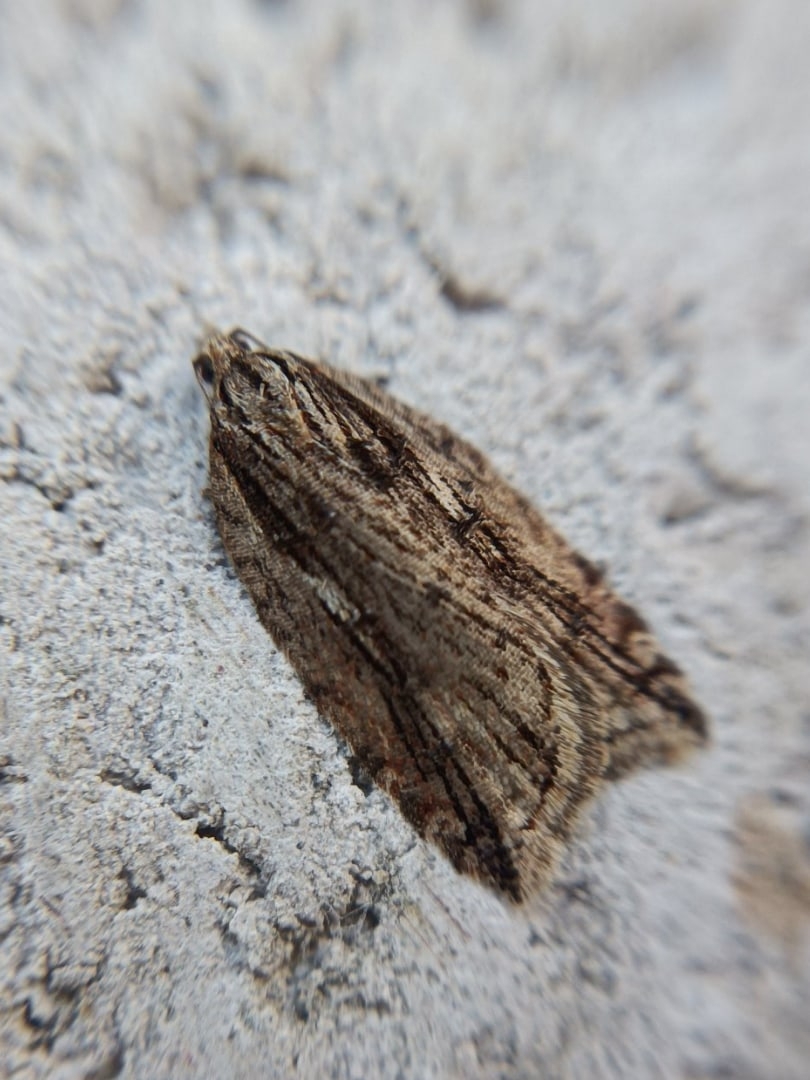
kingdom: Animalia
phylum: Arthropoda
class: Insecta
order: Lepidoptera
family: Tortricidae
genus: Acleris
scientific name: Acleris umbrana
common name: Dark-streaked button
